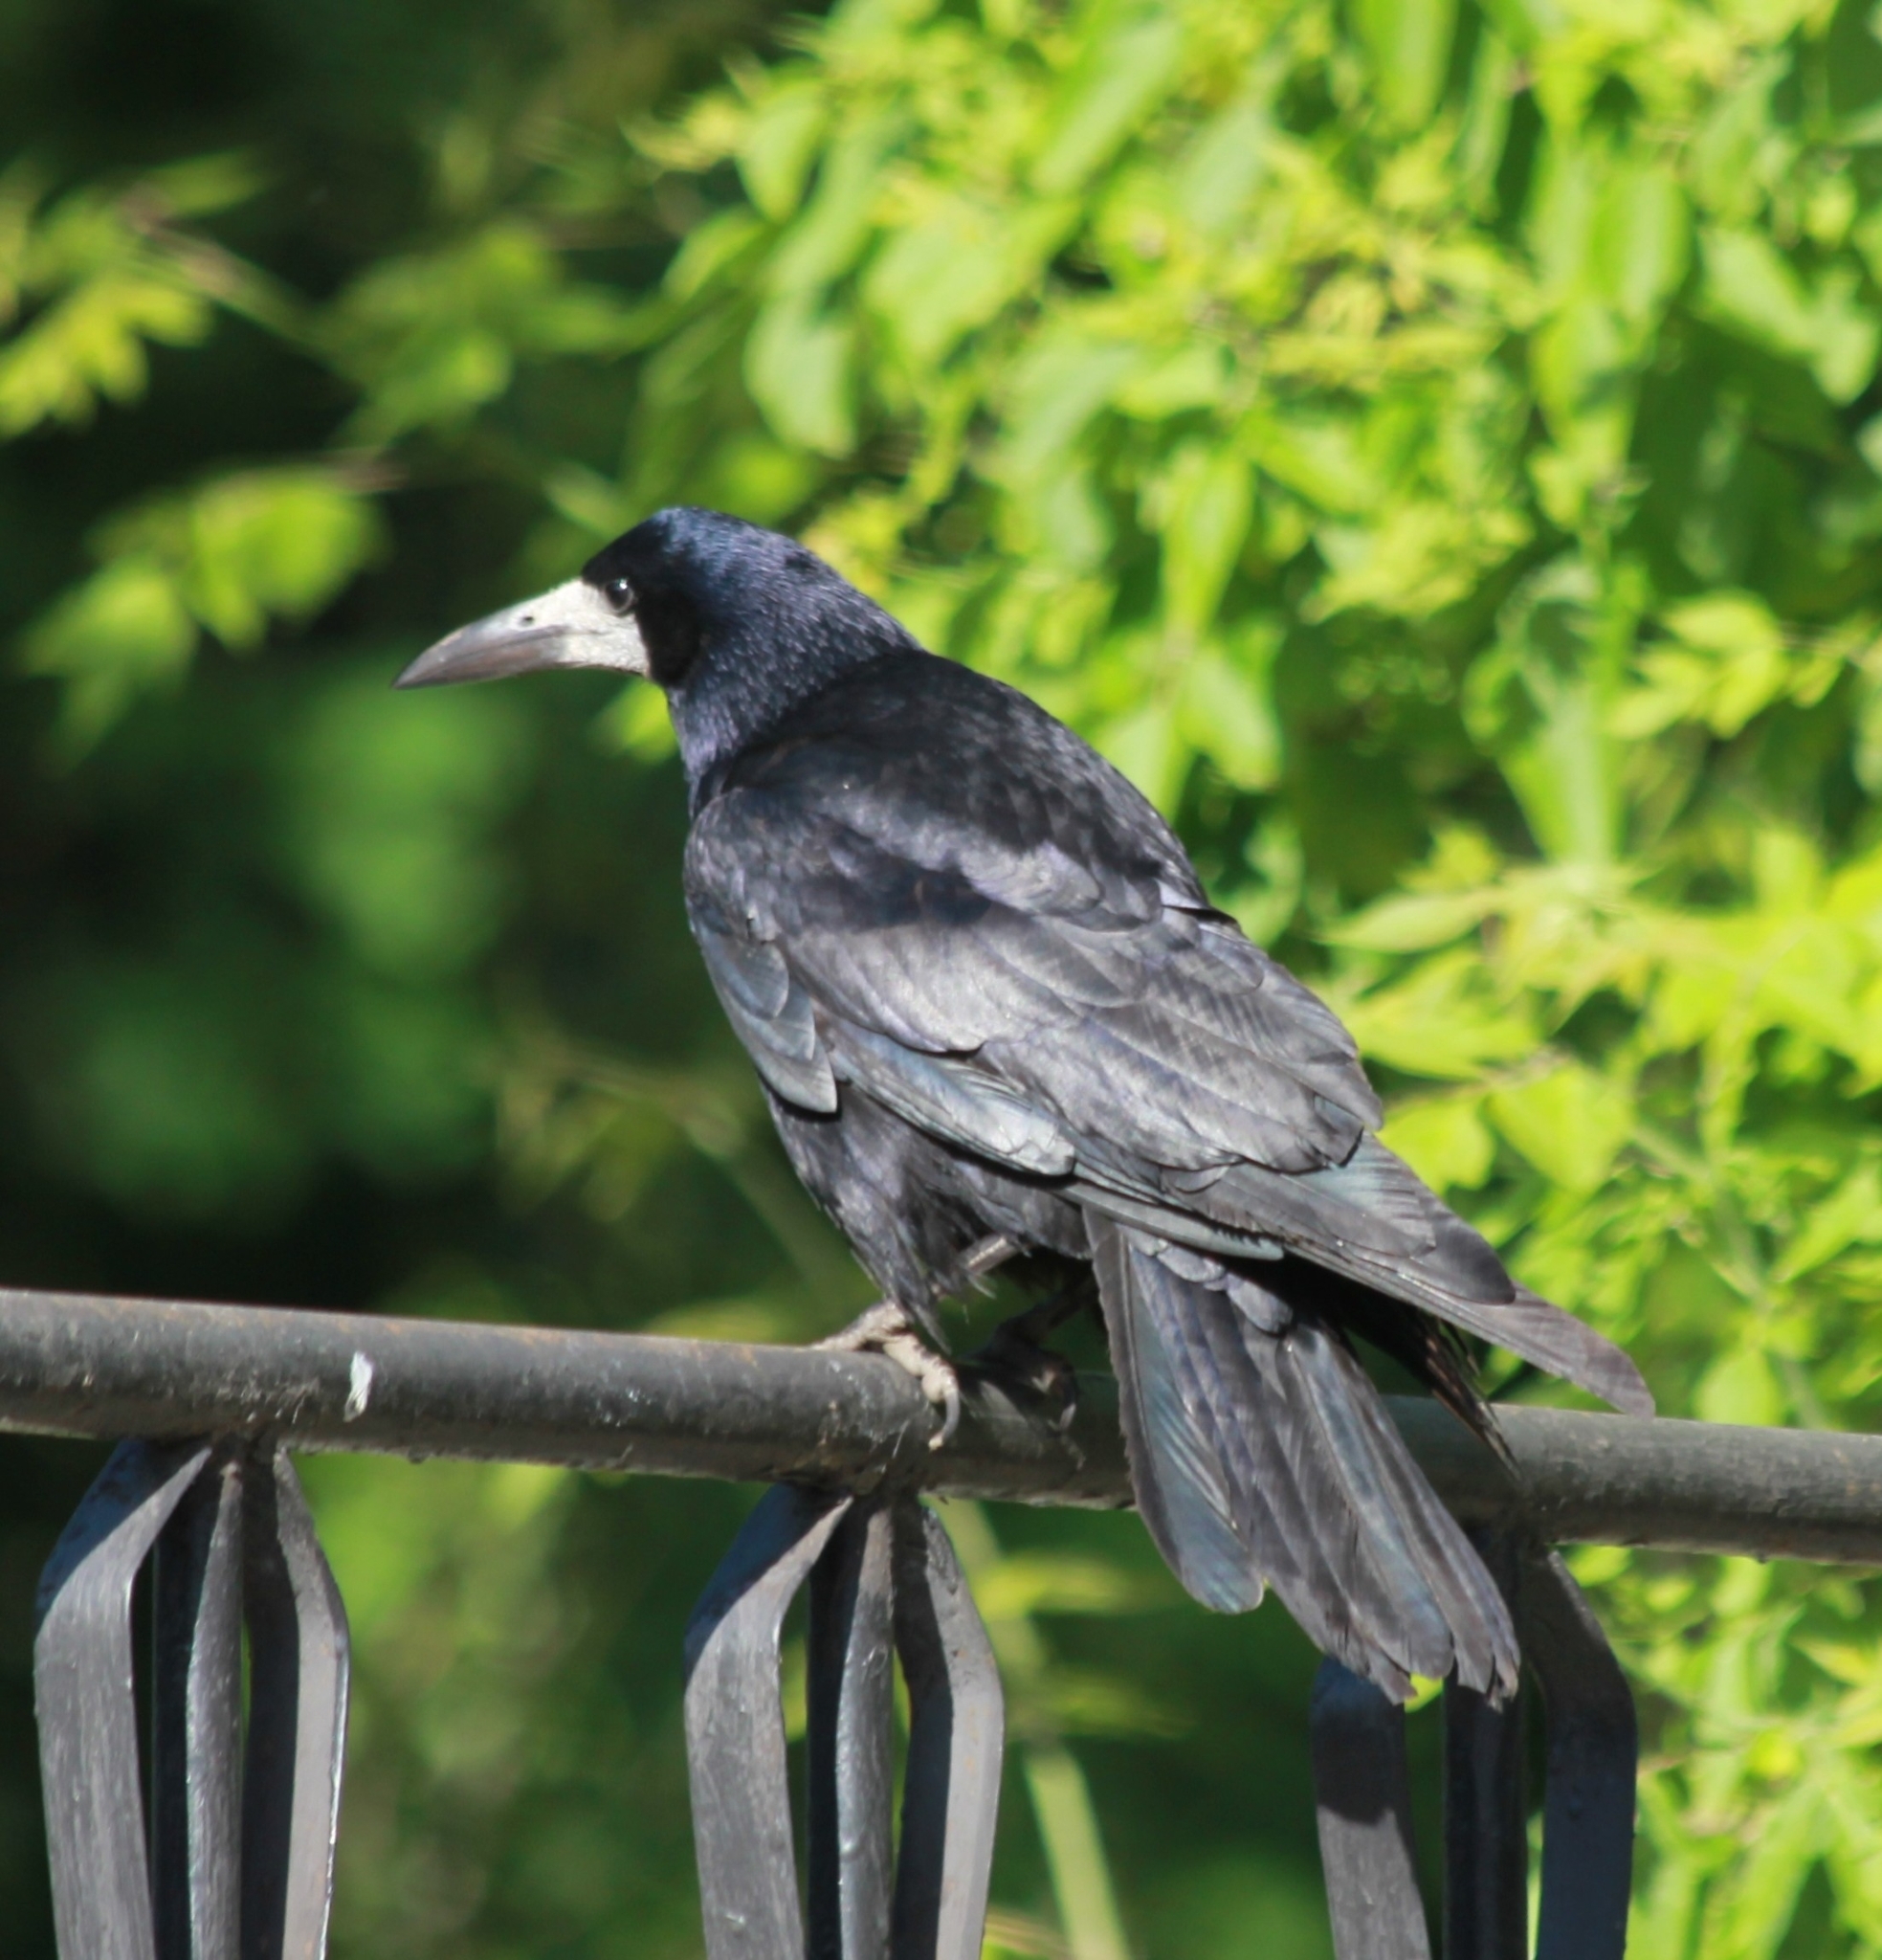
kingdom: Animalia
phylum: Chordata
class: Aves
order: Passeriformes
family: Corvidae
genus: Corvus
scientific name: Corvus frugilegus
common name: Rook
